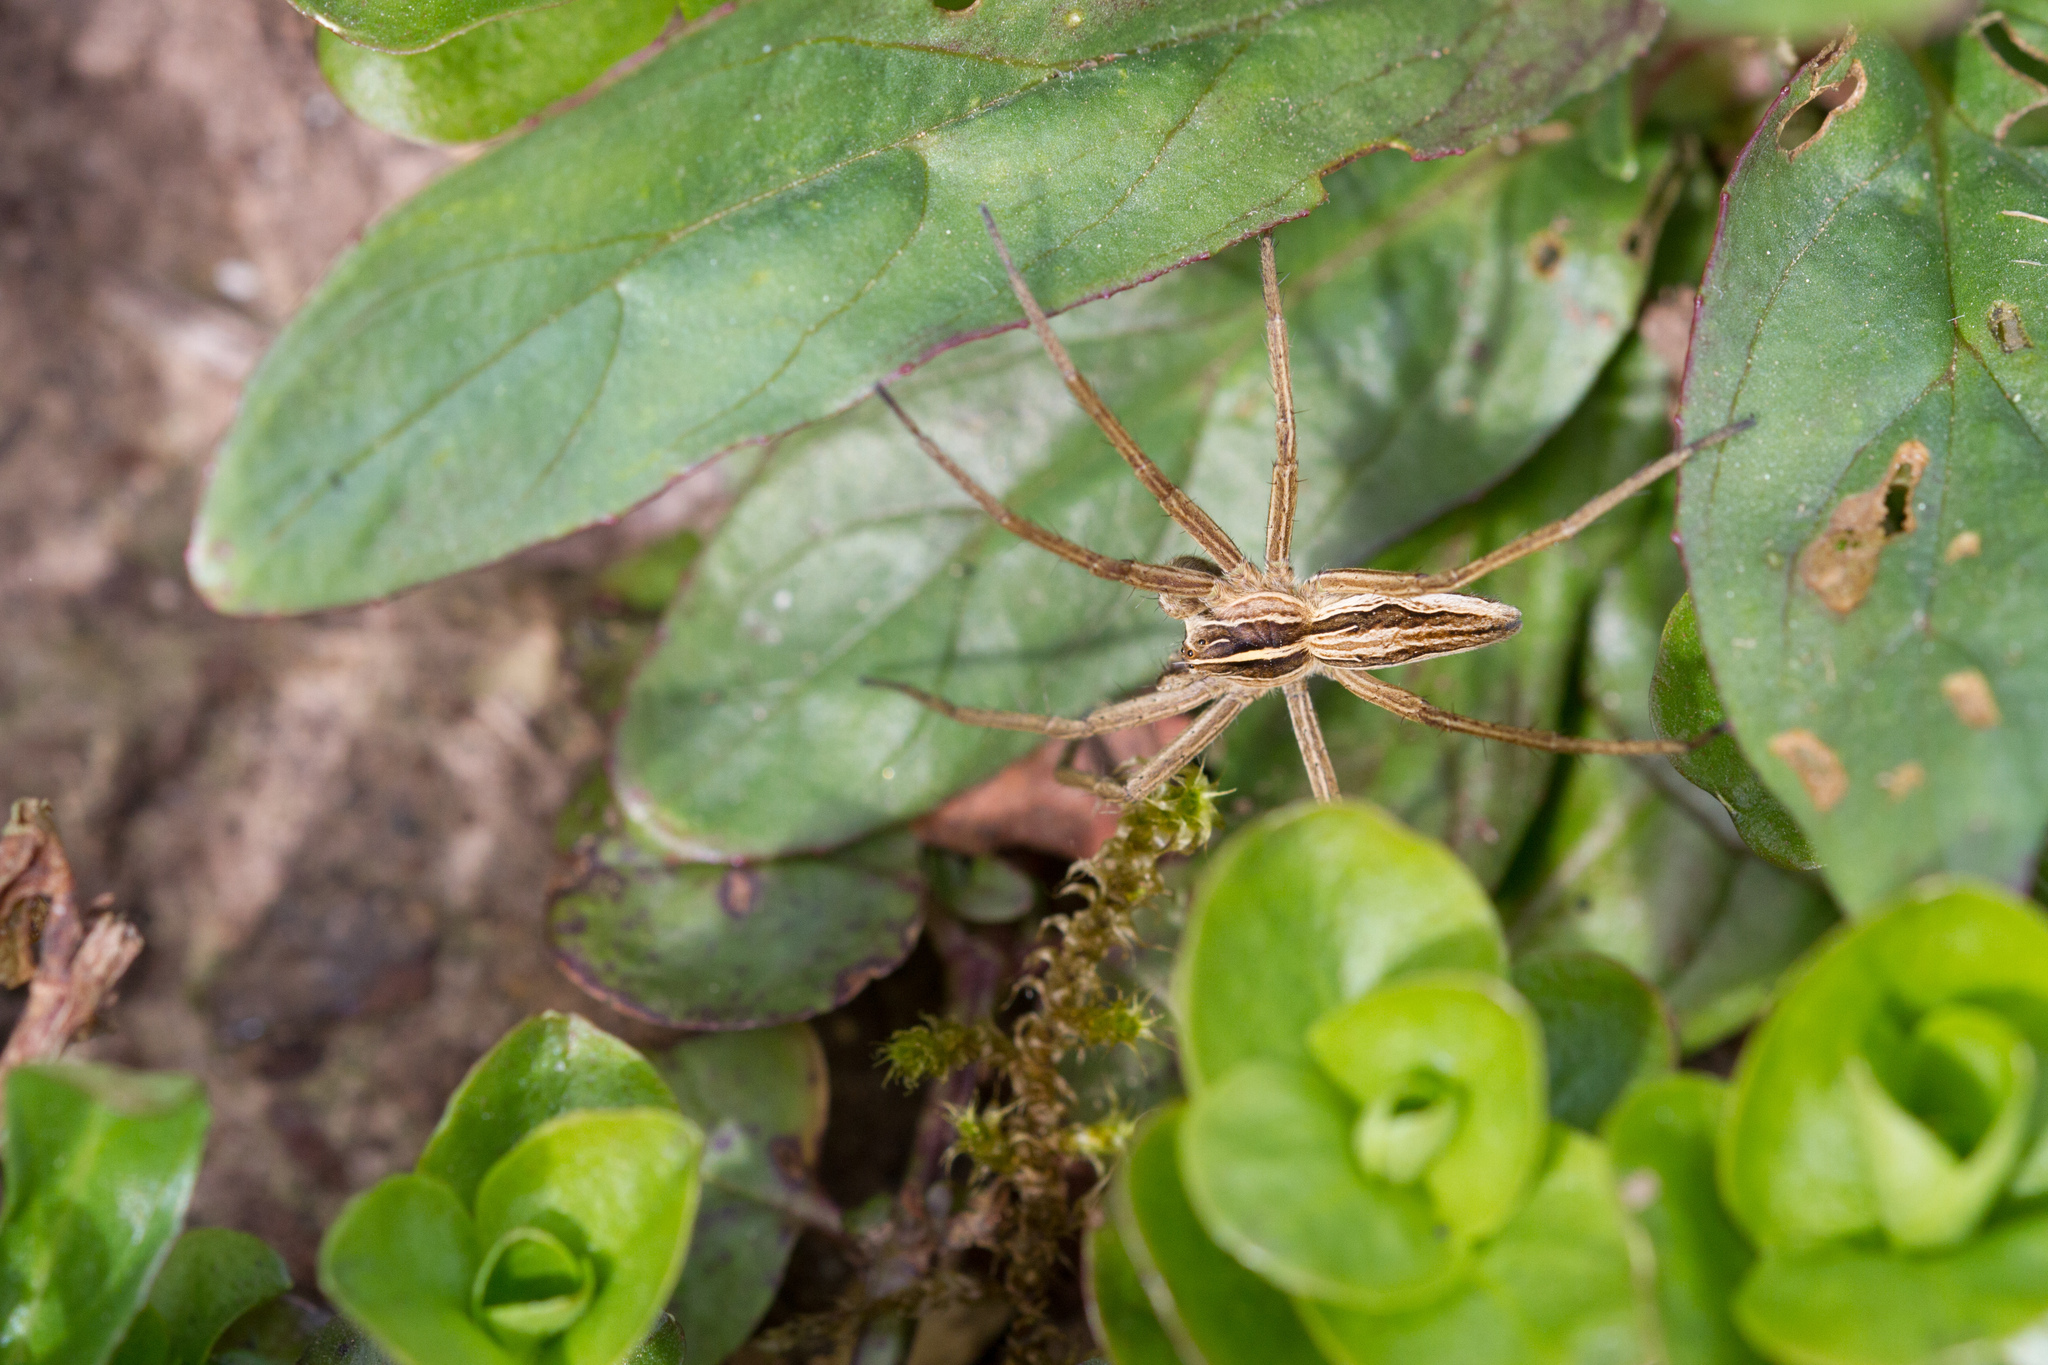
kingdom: Animalia
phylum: Arthropoda
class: Arachnida
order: Araneae
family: Pisauridae
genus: Pisaura
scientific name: Pisaura mirabilis
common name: Tent spider
